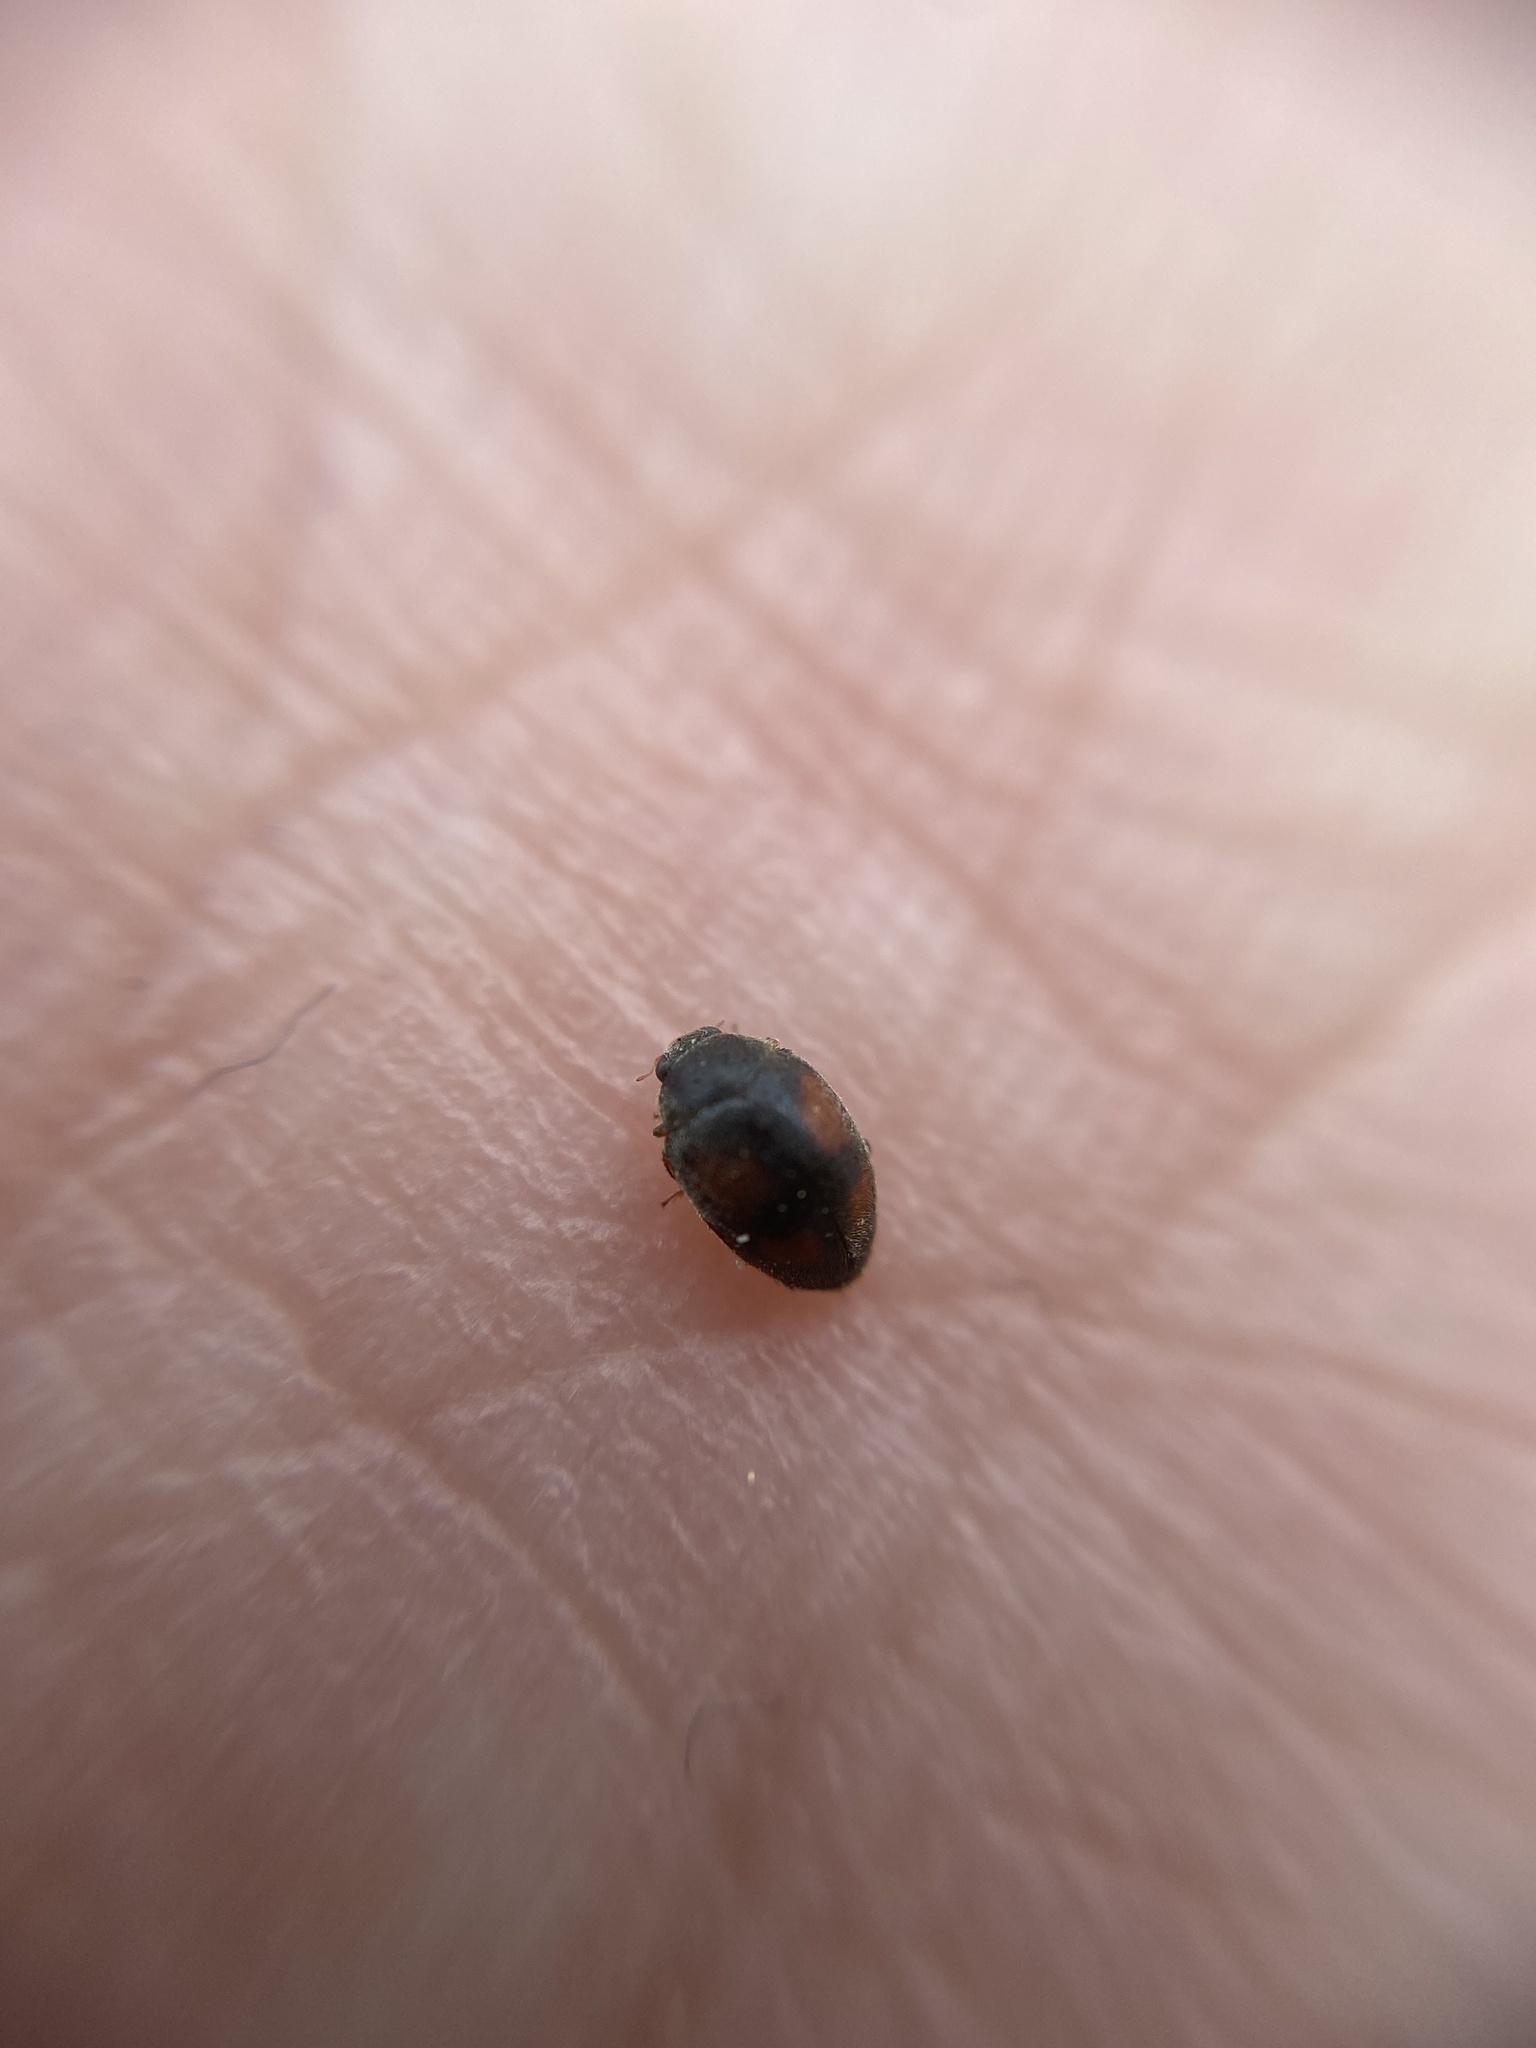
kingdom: Animalia
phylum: Arthropoda
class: Insecta
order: Coleoptera
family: Coccinellidae
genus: Scymnus
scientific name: Scymnus frontalis
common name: Ladybird beetle
